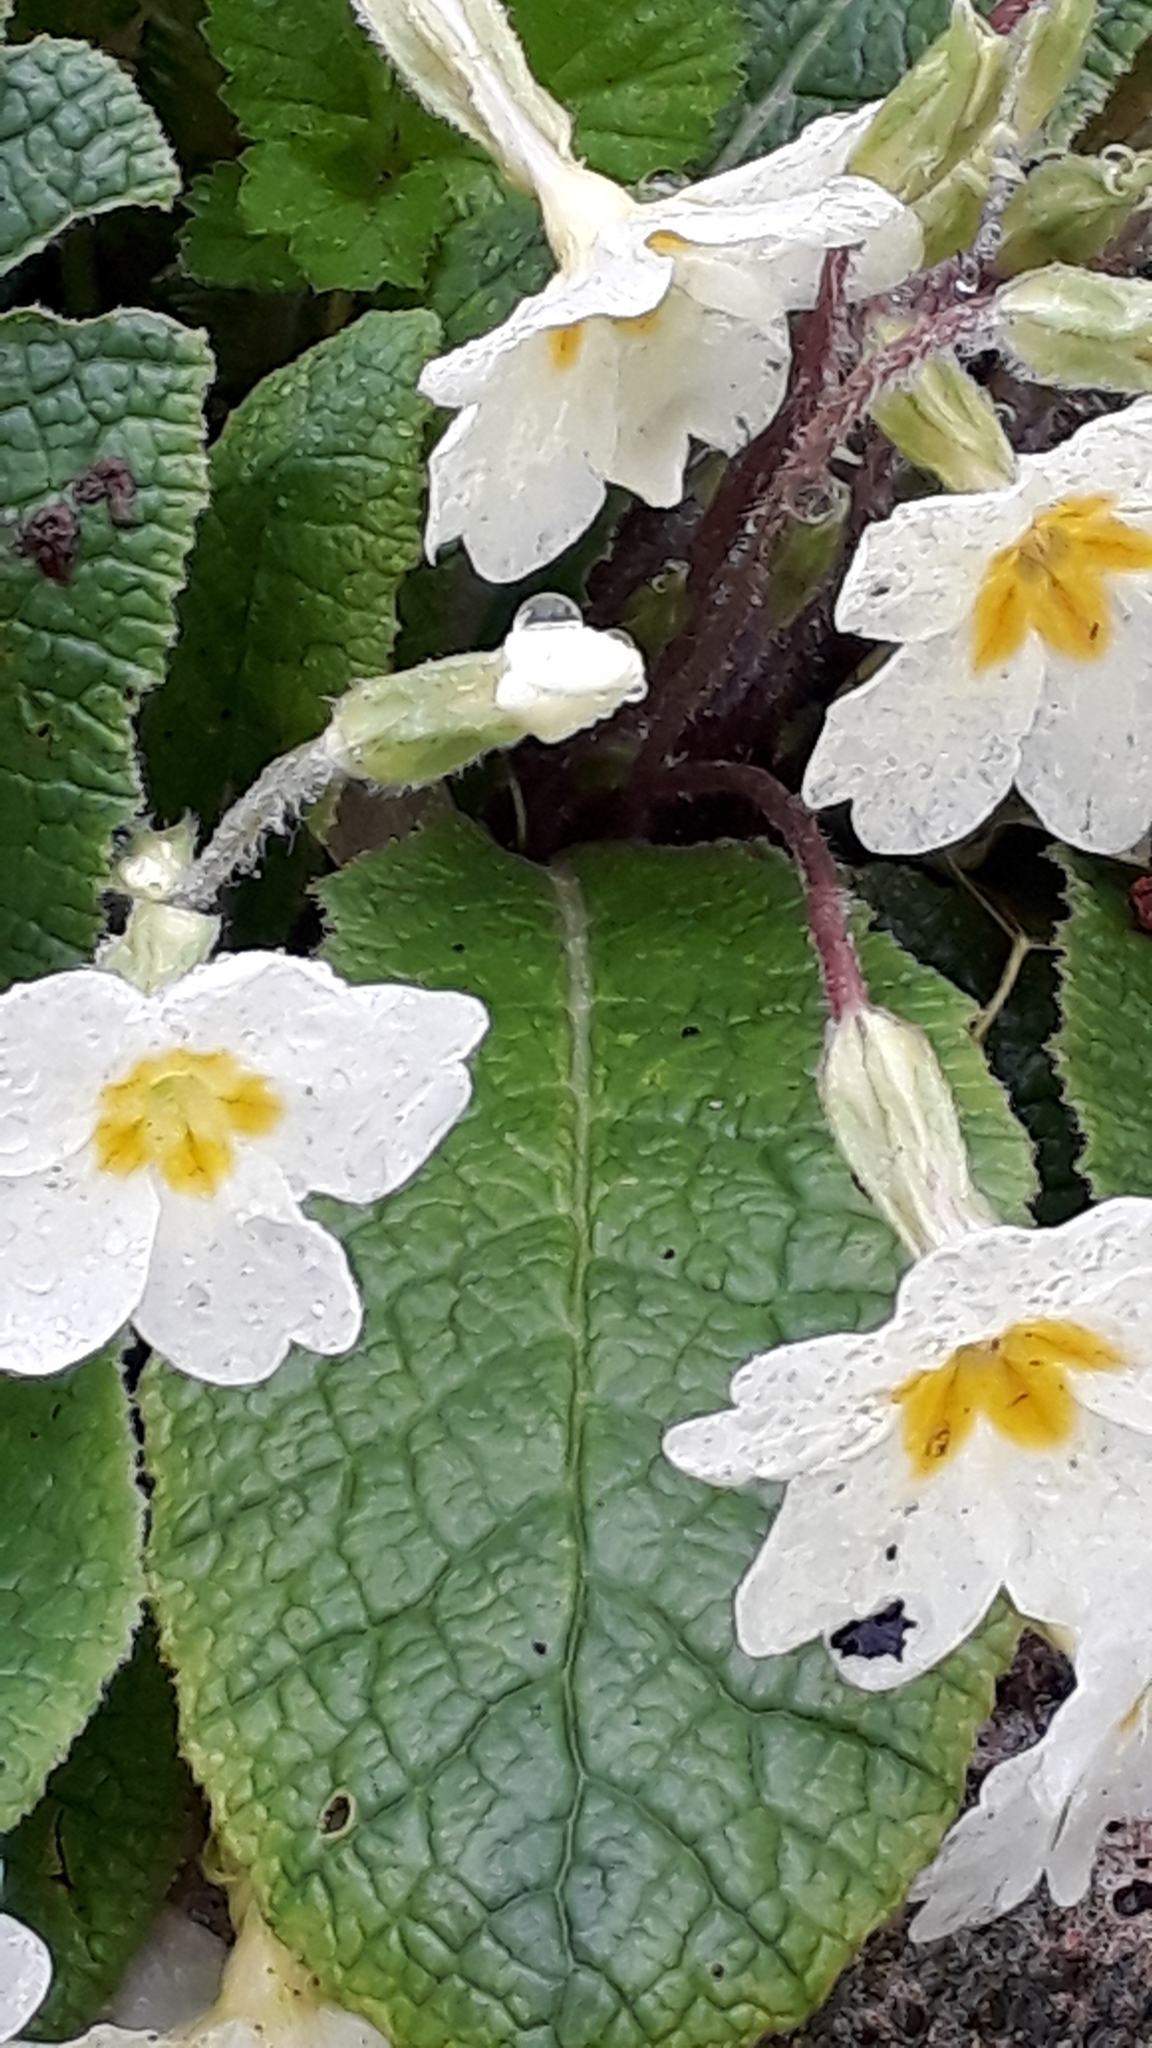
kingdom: Plantae
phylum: Tracheophyta
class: Magnoliopsida
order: Ericales
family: Primulaceae
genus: Primula
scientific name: Primula vulgaris
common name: Primrose
